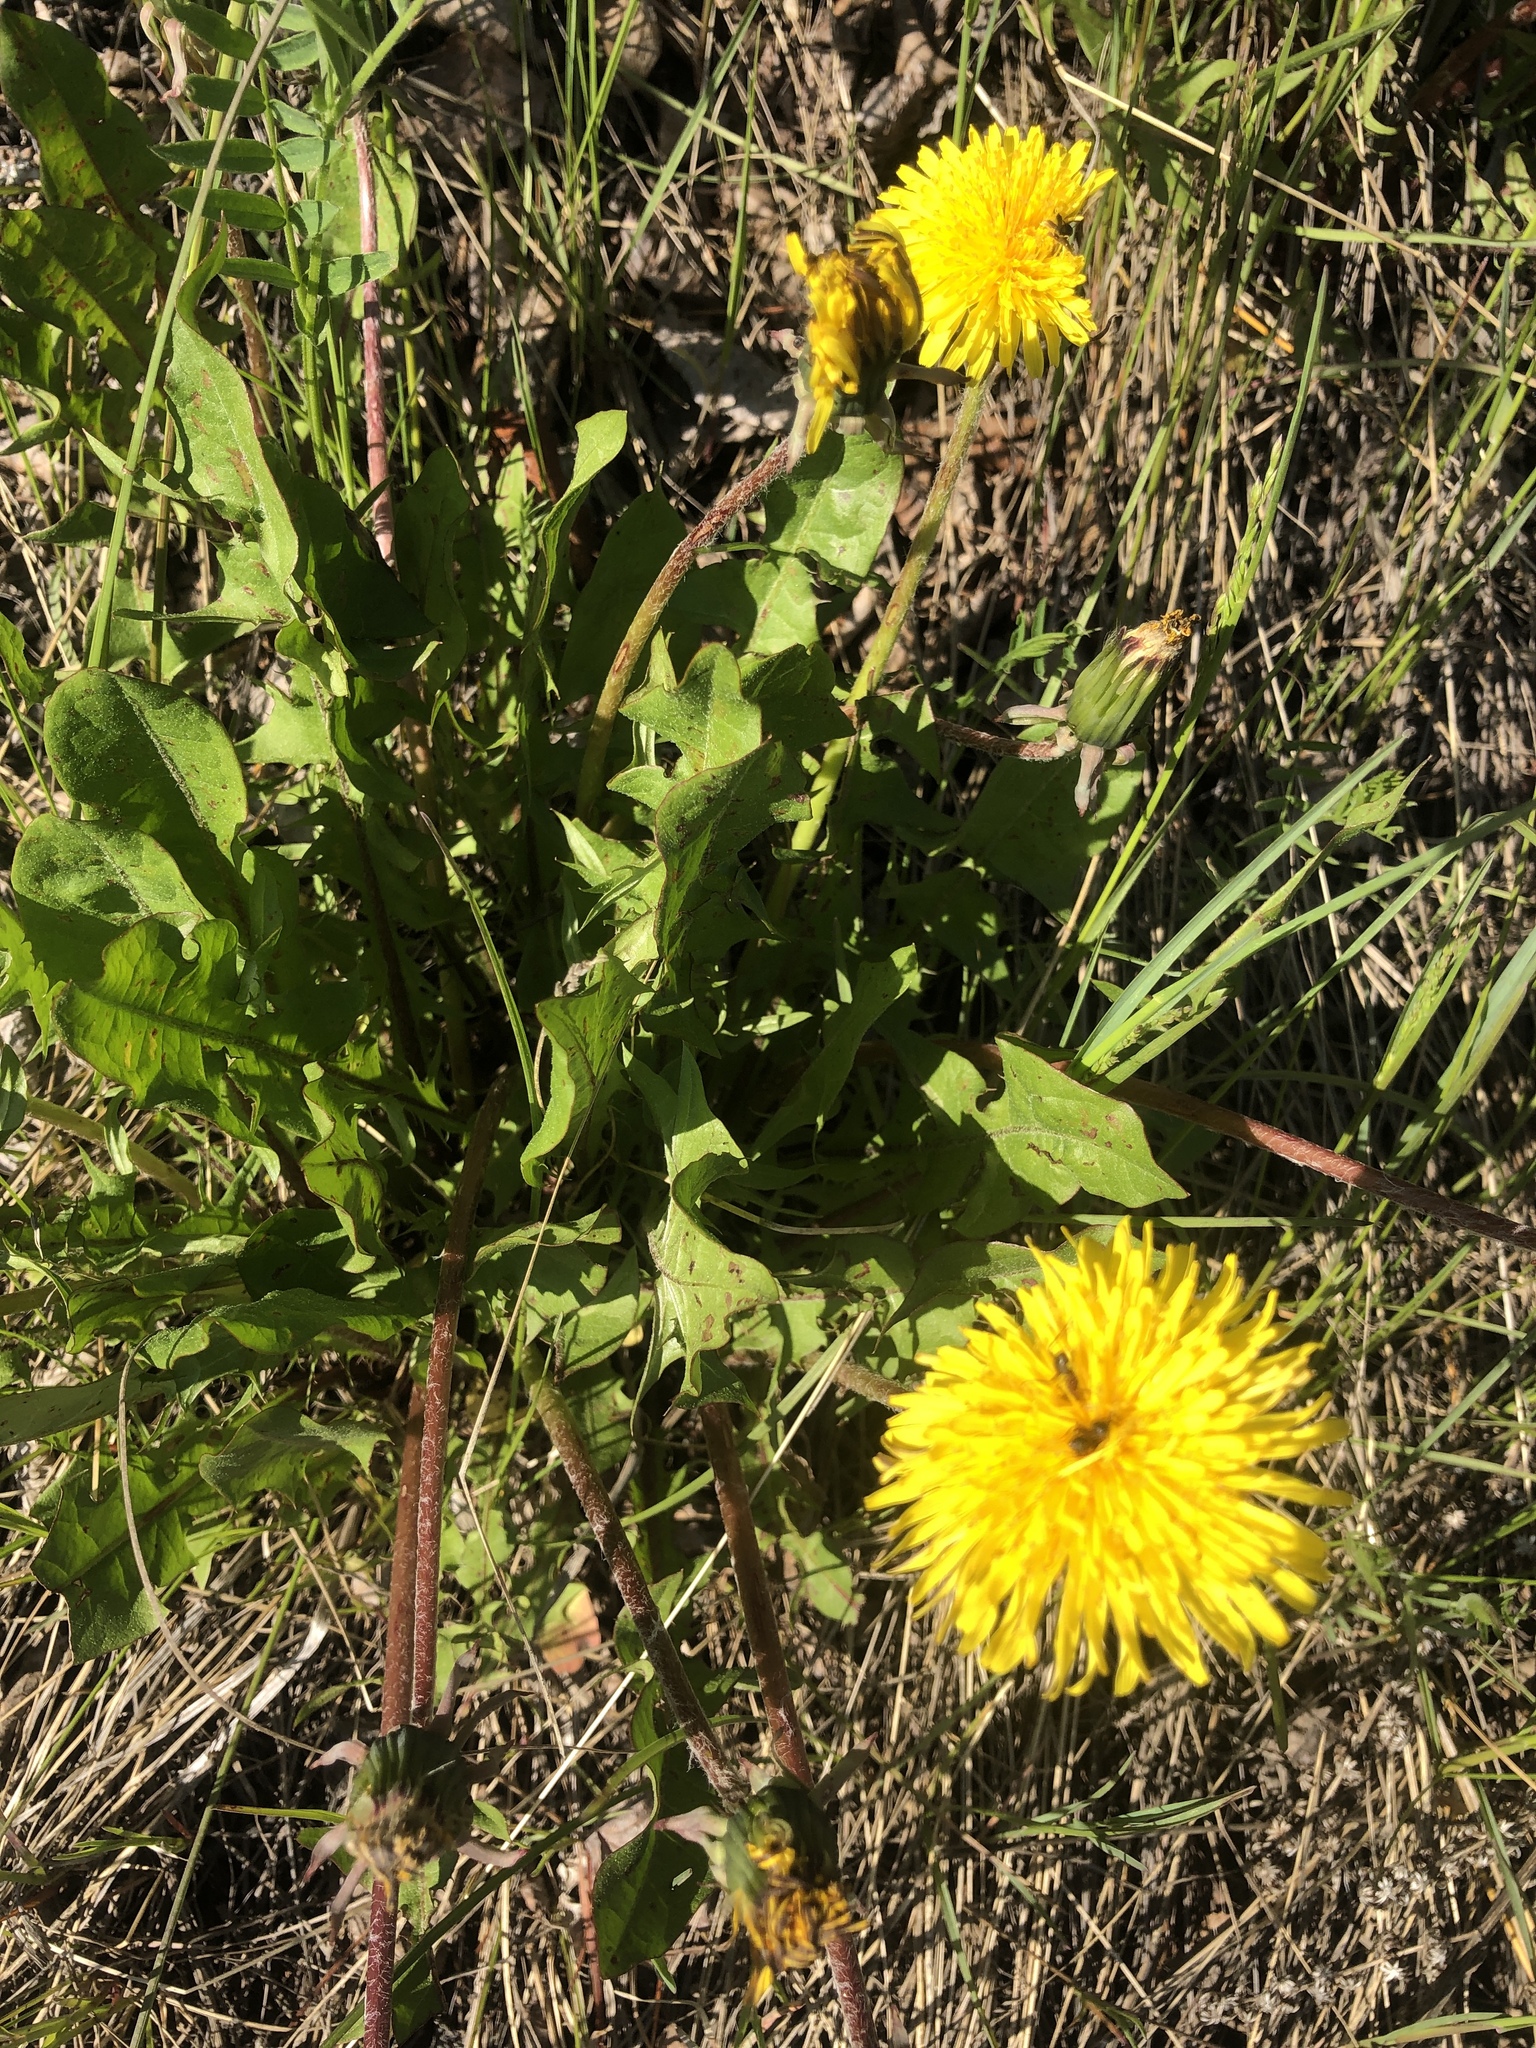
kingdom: Plantae
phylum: Tracheophyta
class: Magnoliopsida
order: Asterales
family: Asteraceae
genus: Taraxacum
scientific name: Taraxacum officinale
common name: Common dandelion
